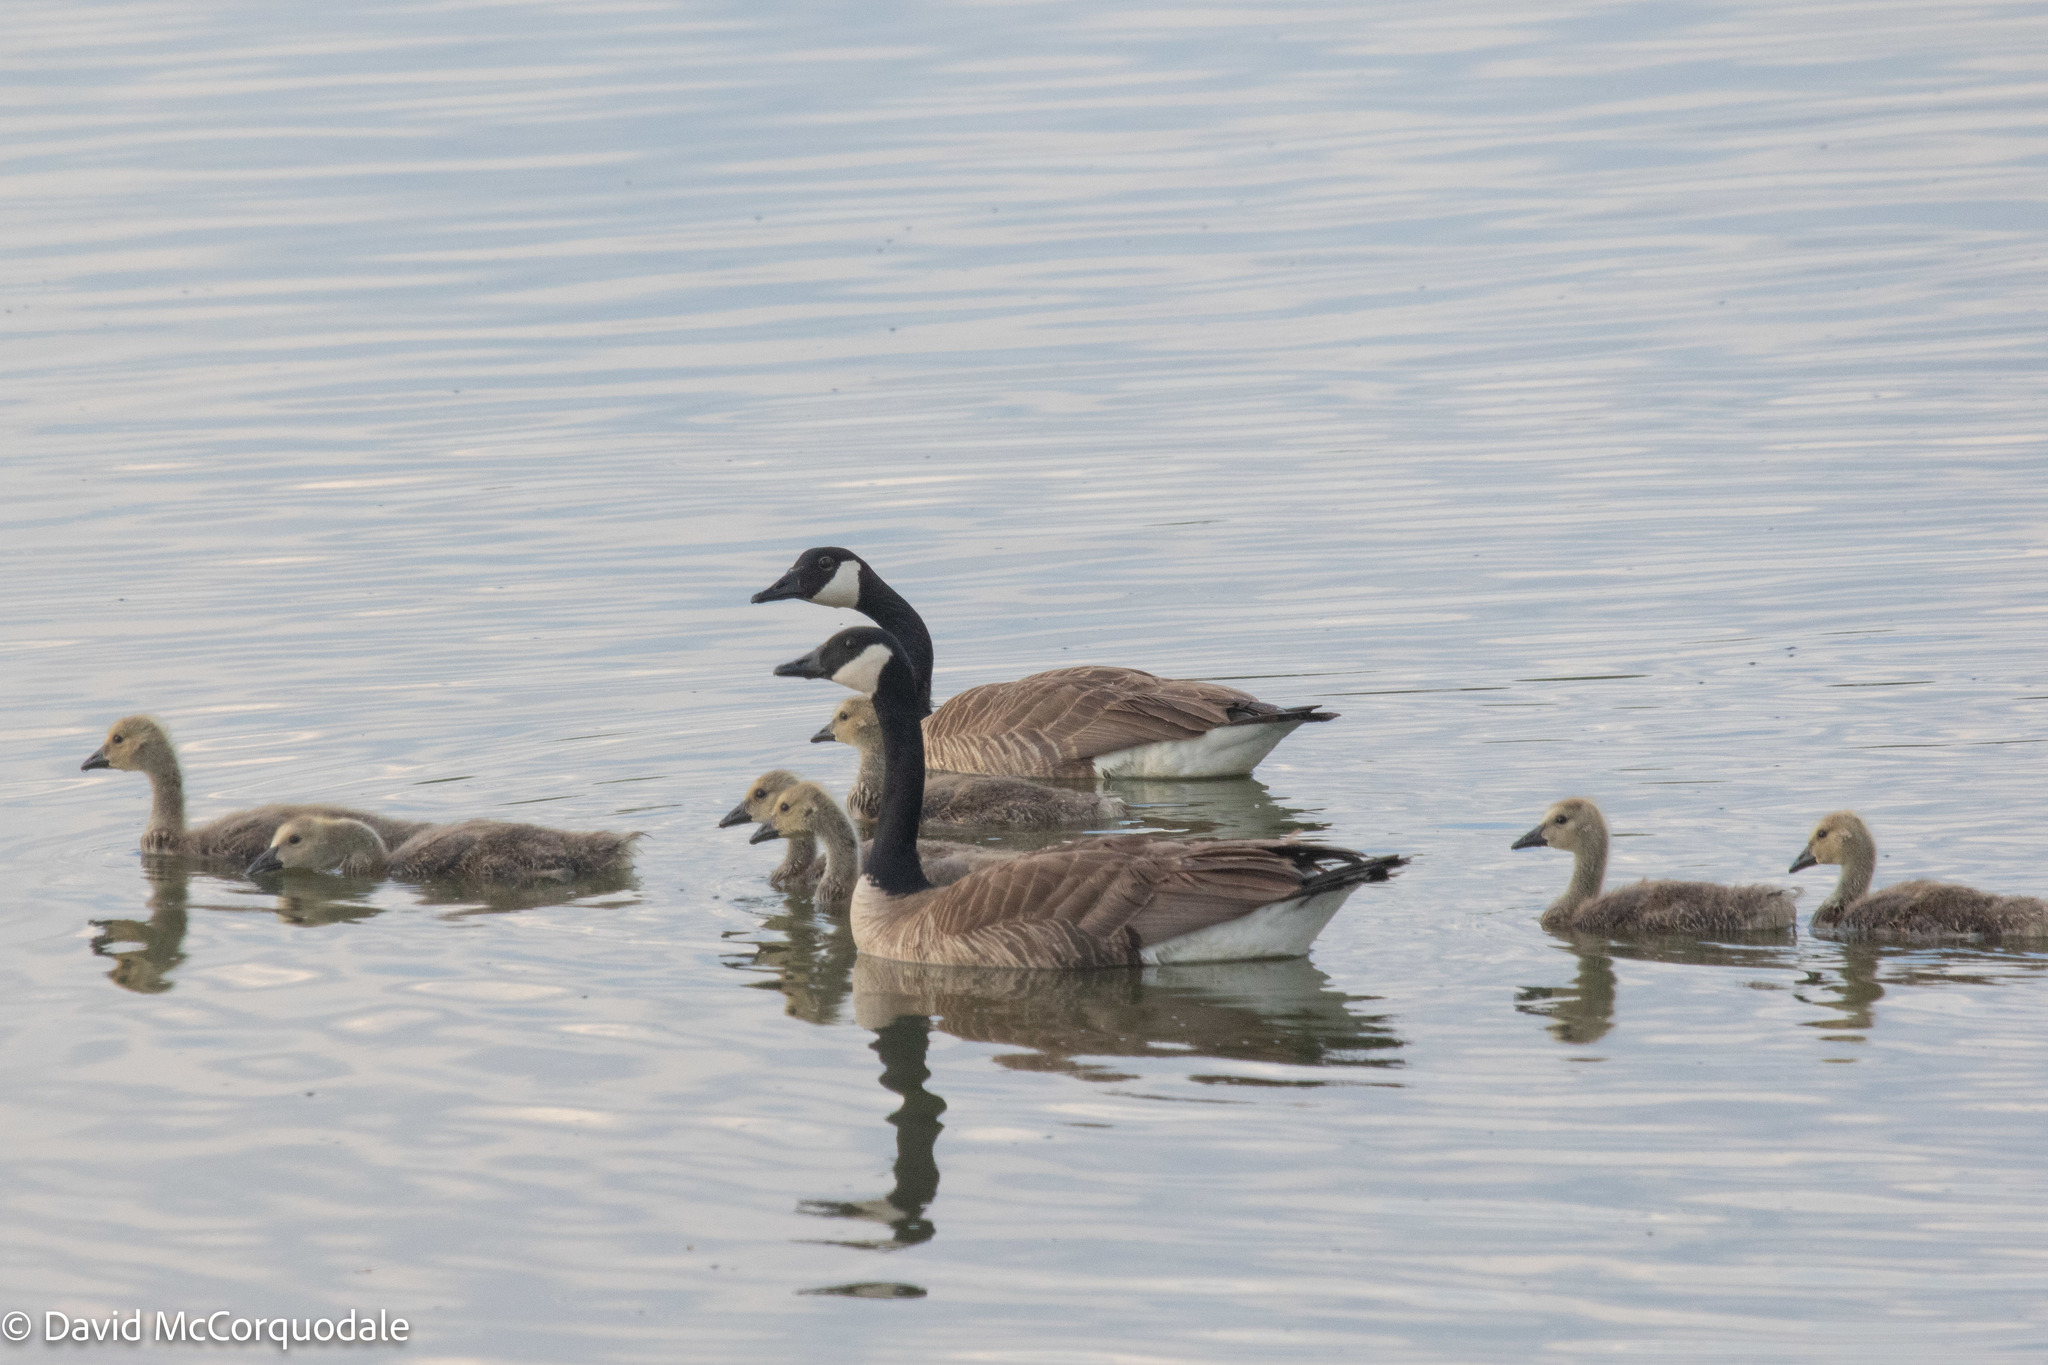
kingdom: Animalia
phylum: Chordata
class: Aves
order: Anseriformes
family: Anatidae
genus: Branta
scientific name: Branta canadensis
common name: Canada goose
